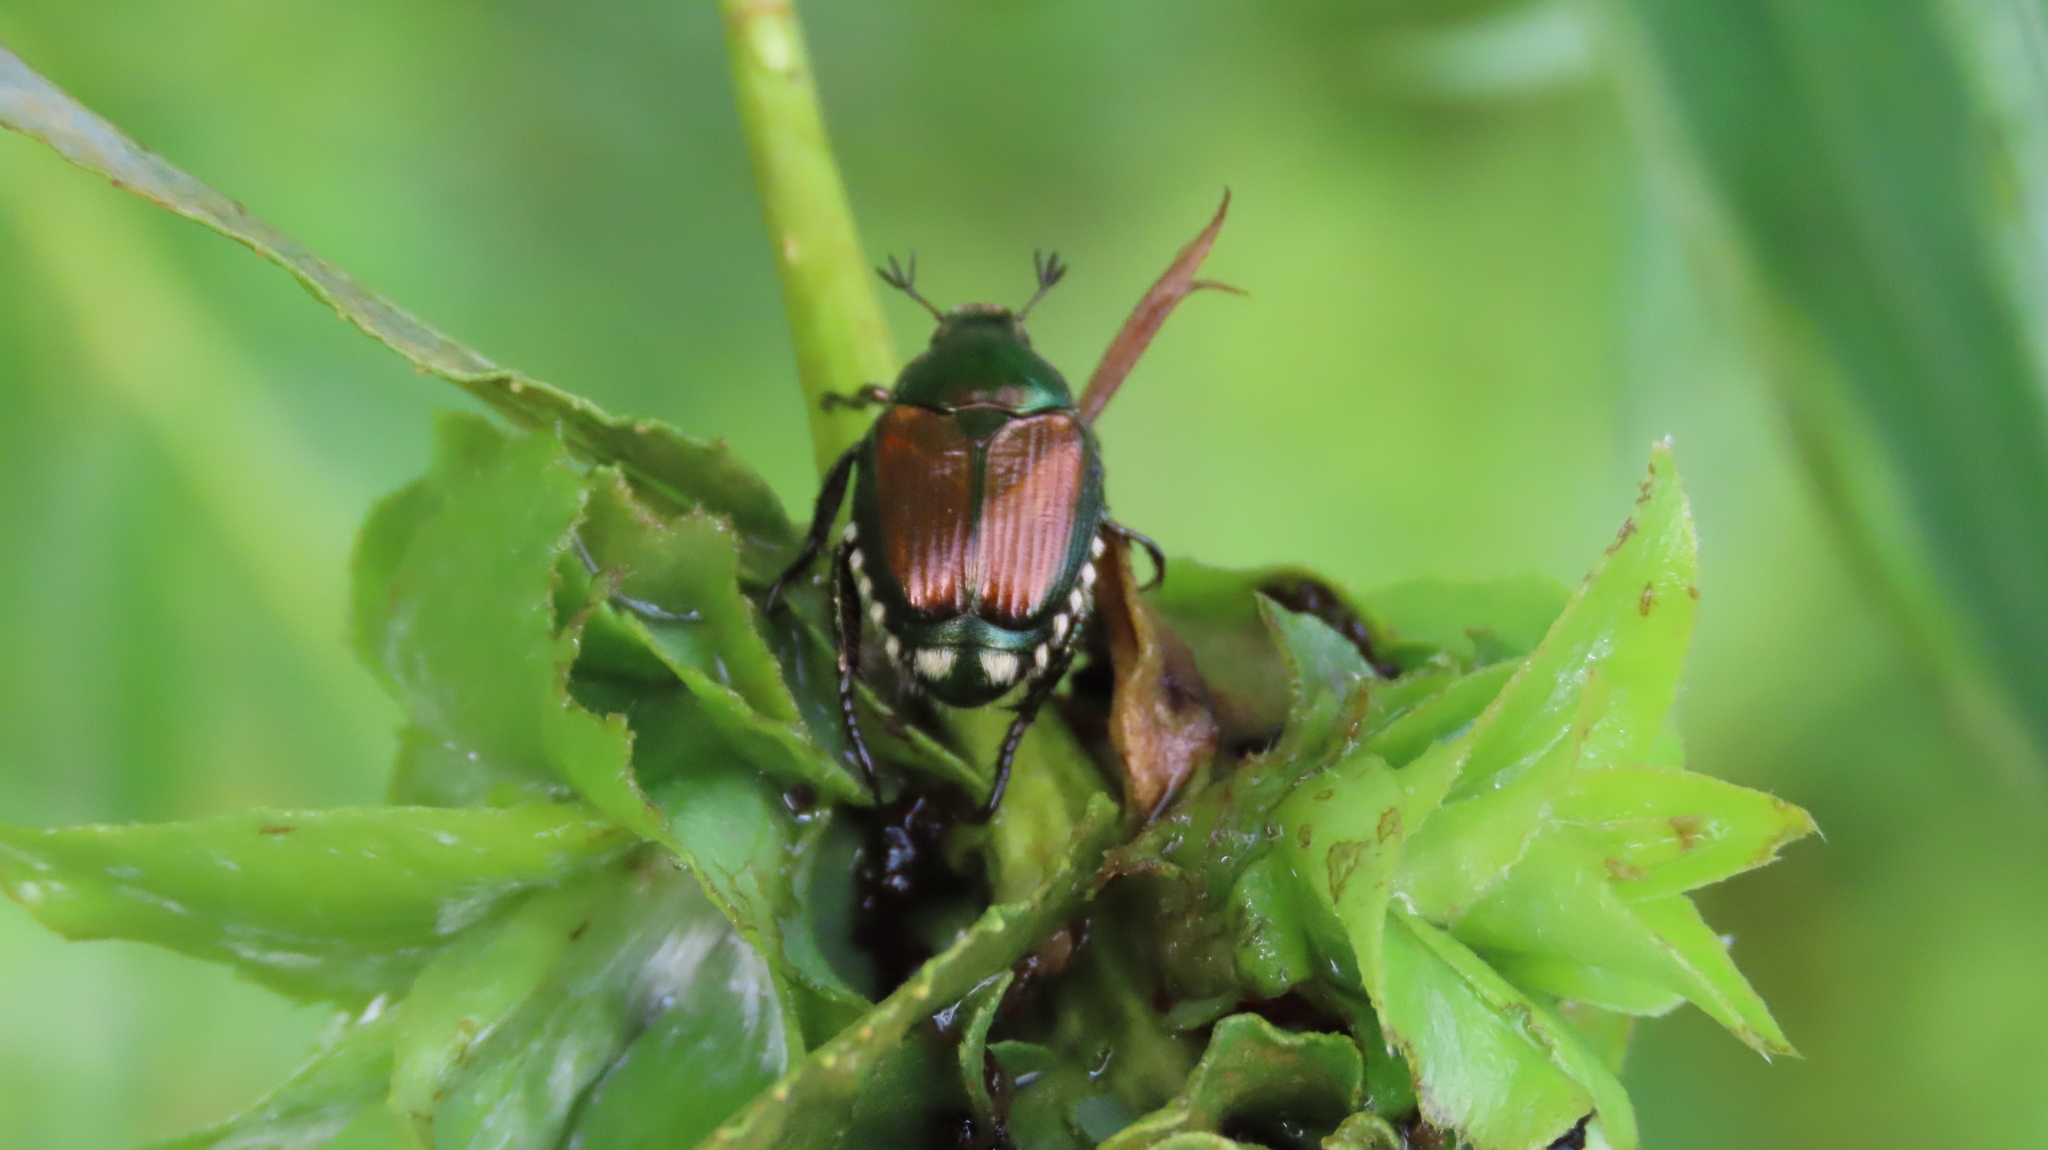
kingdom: Animalia
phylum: Arthropoda
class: Insecta
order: Coleoptera
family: Scarabaeidae
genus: Popillia
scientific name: Popillia japonica
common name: Japanese beetle
